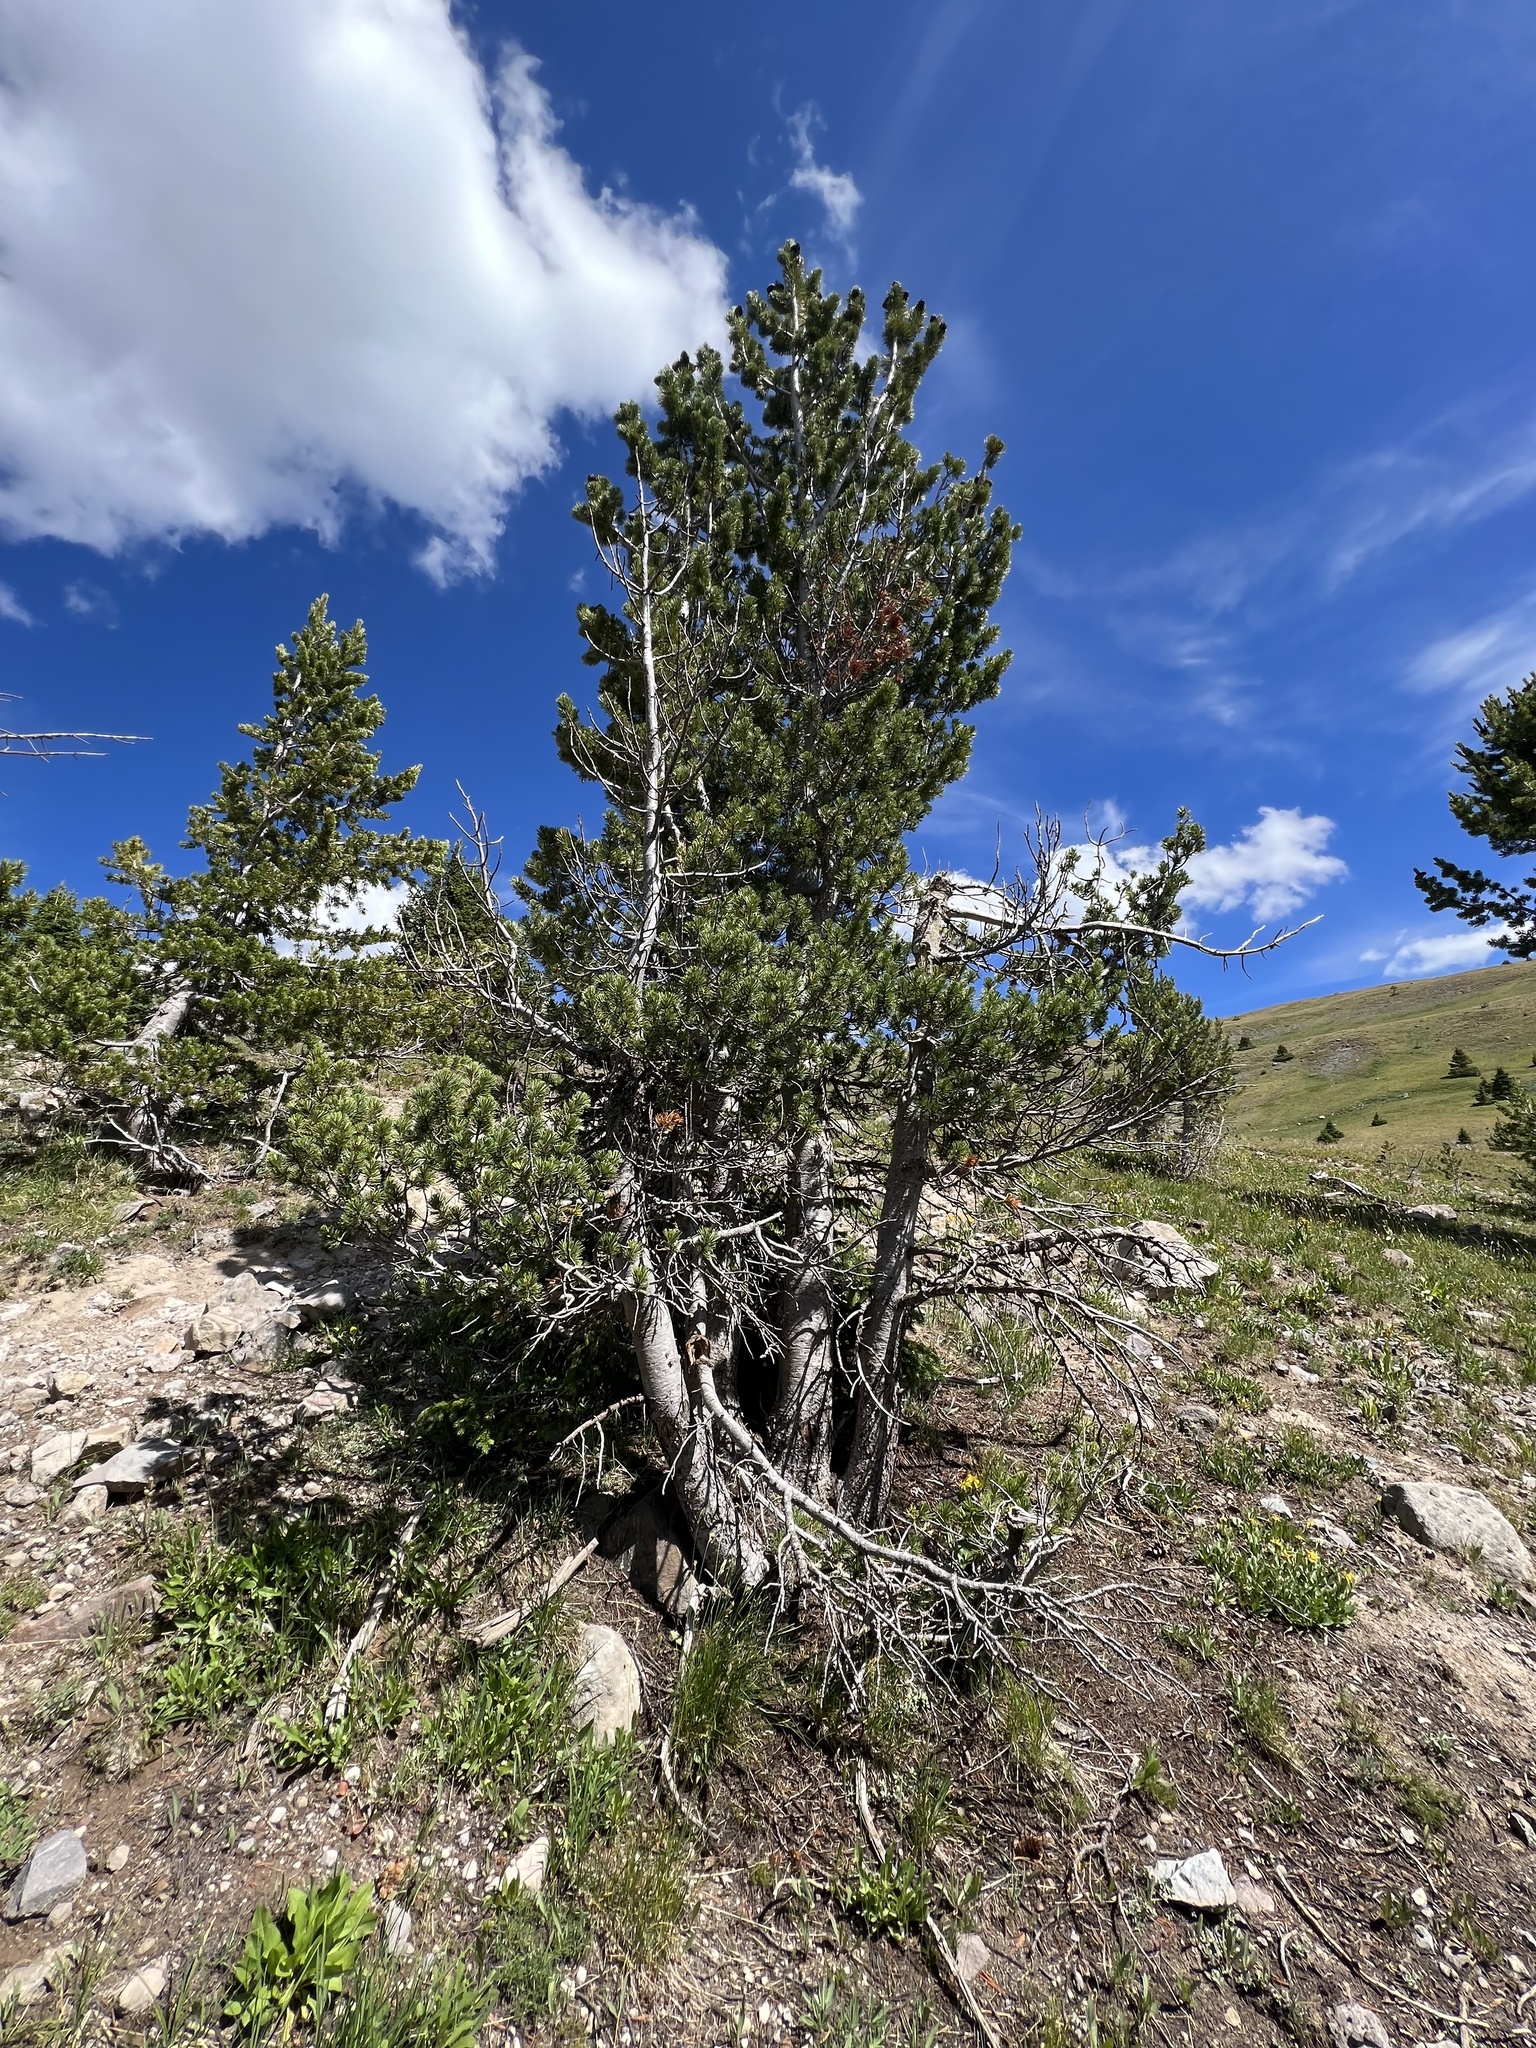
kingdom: Plantae
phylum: Tracheophyta
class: Pinopsida
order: Pinales
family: Pinaceae
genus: Pinus
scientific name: Pinus albicaulis
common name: Whitebark pine
